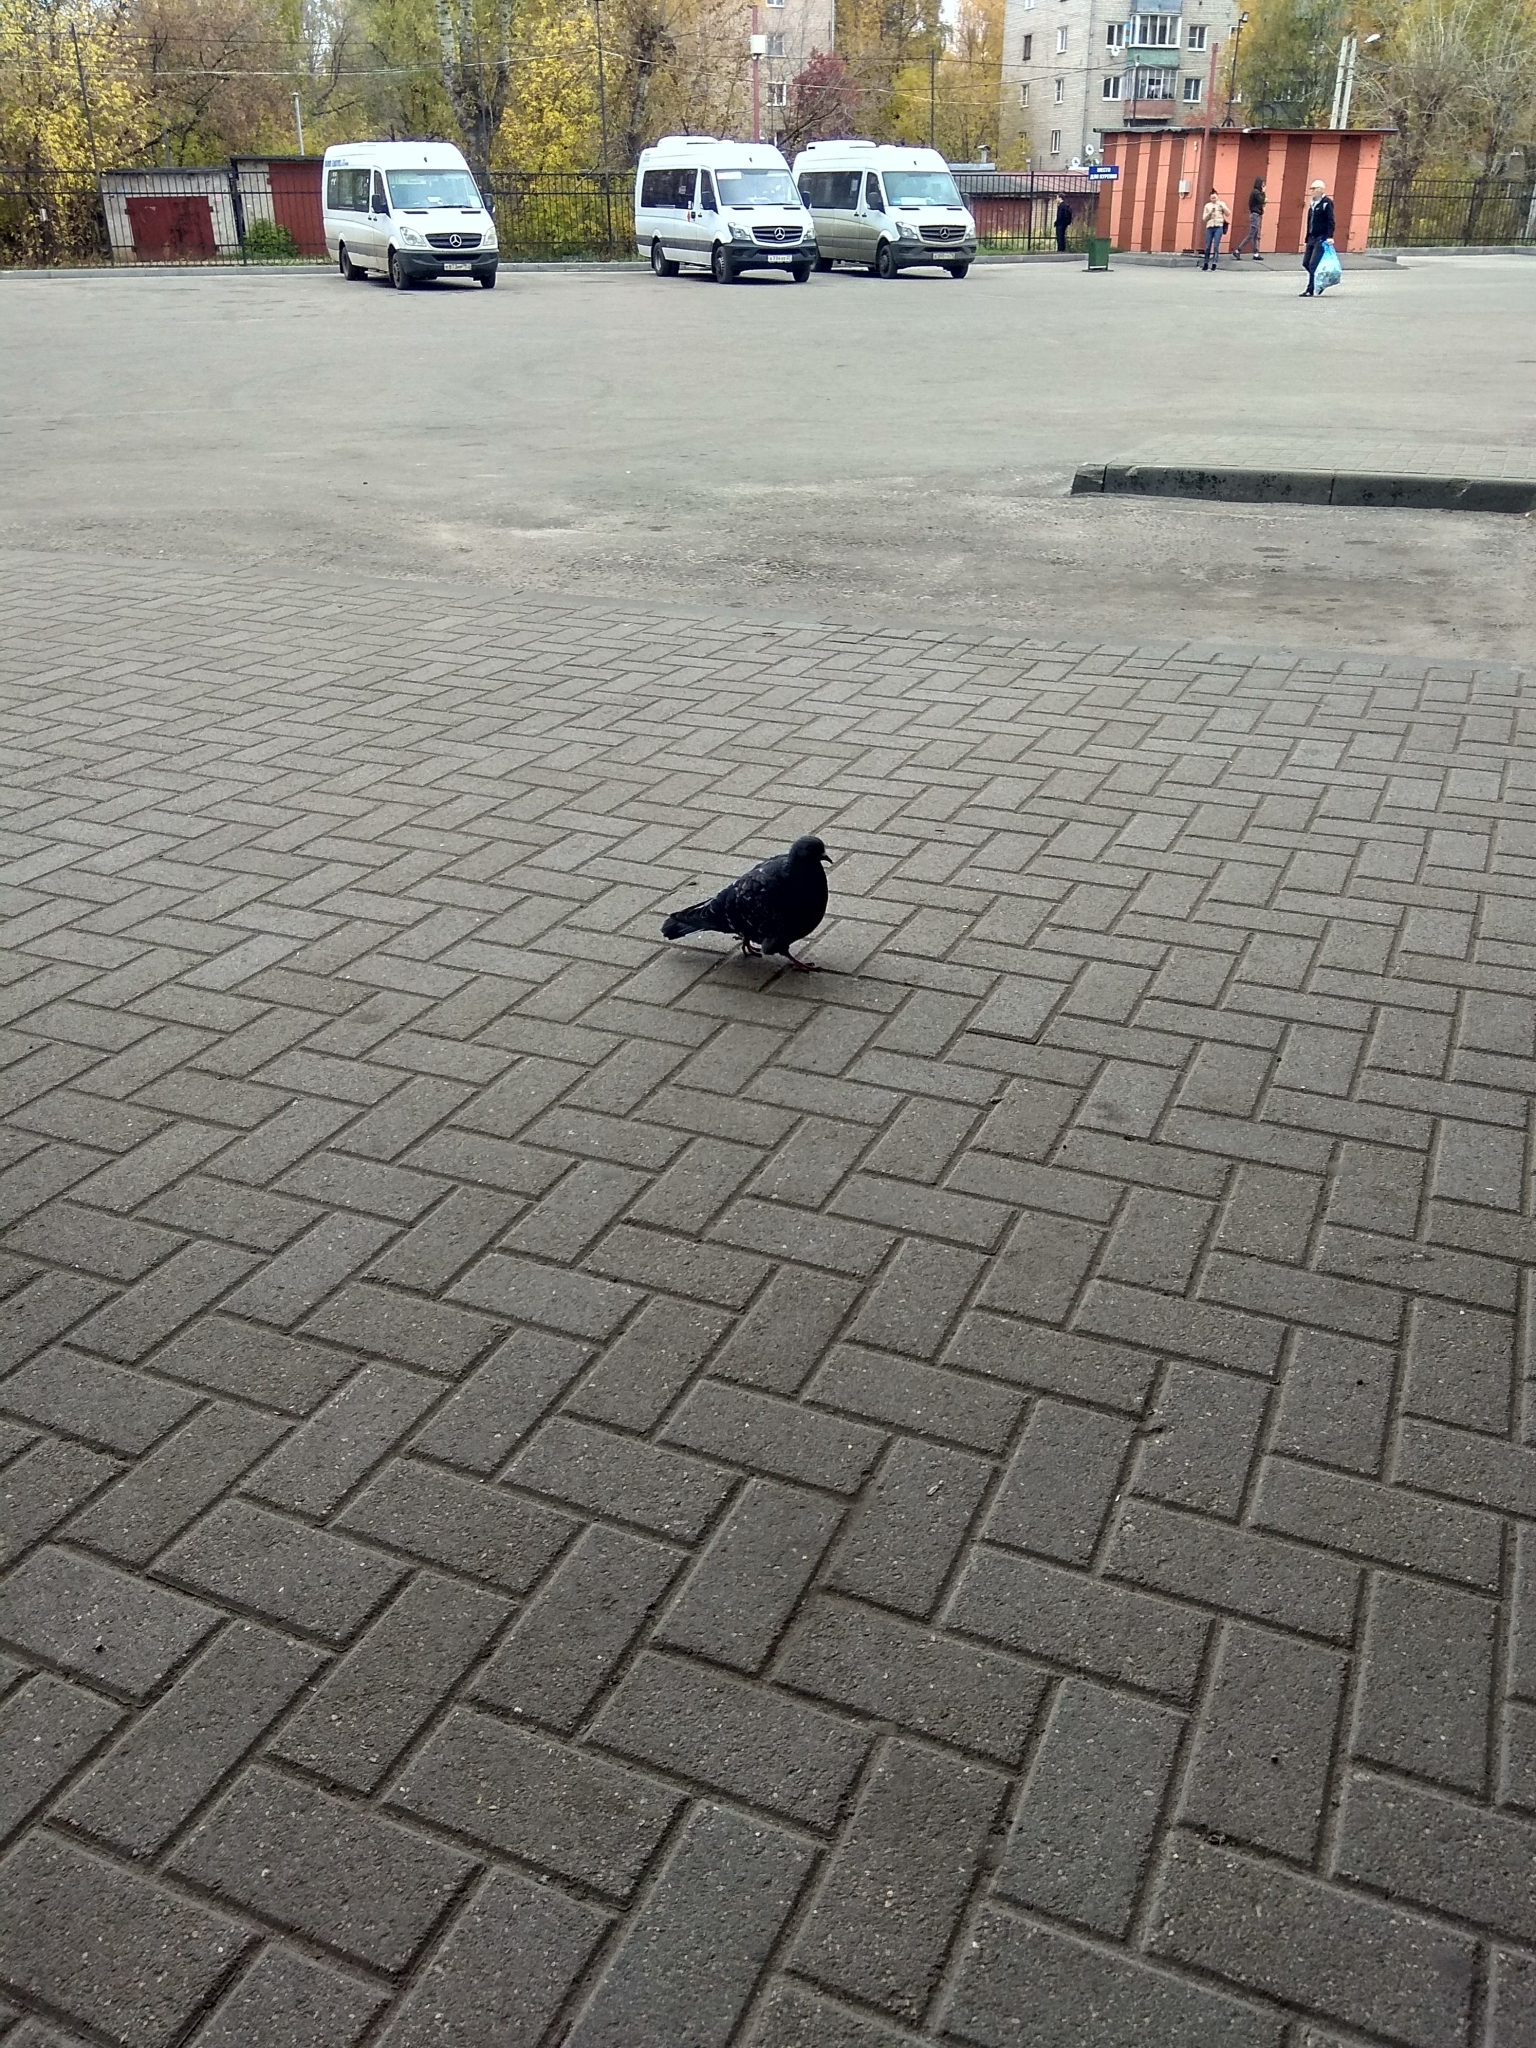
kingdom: Animalia
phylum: Chordata
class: Aves
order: Columbiformes
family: Columbidae
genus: Columba
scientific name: Columba livia
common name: Rock pigeon
